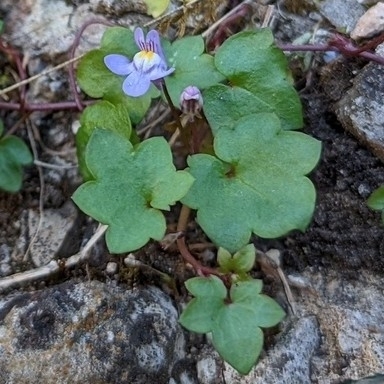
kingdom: Plantae
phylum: Tracheophyta
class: Magnoliopsida
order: Lamiales
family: Plantaginaceae
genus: Cymbalaria
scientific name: Cymbalaria muralis
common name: Ivy-leaved toadflax
